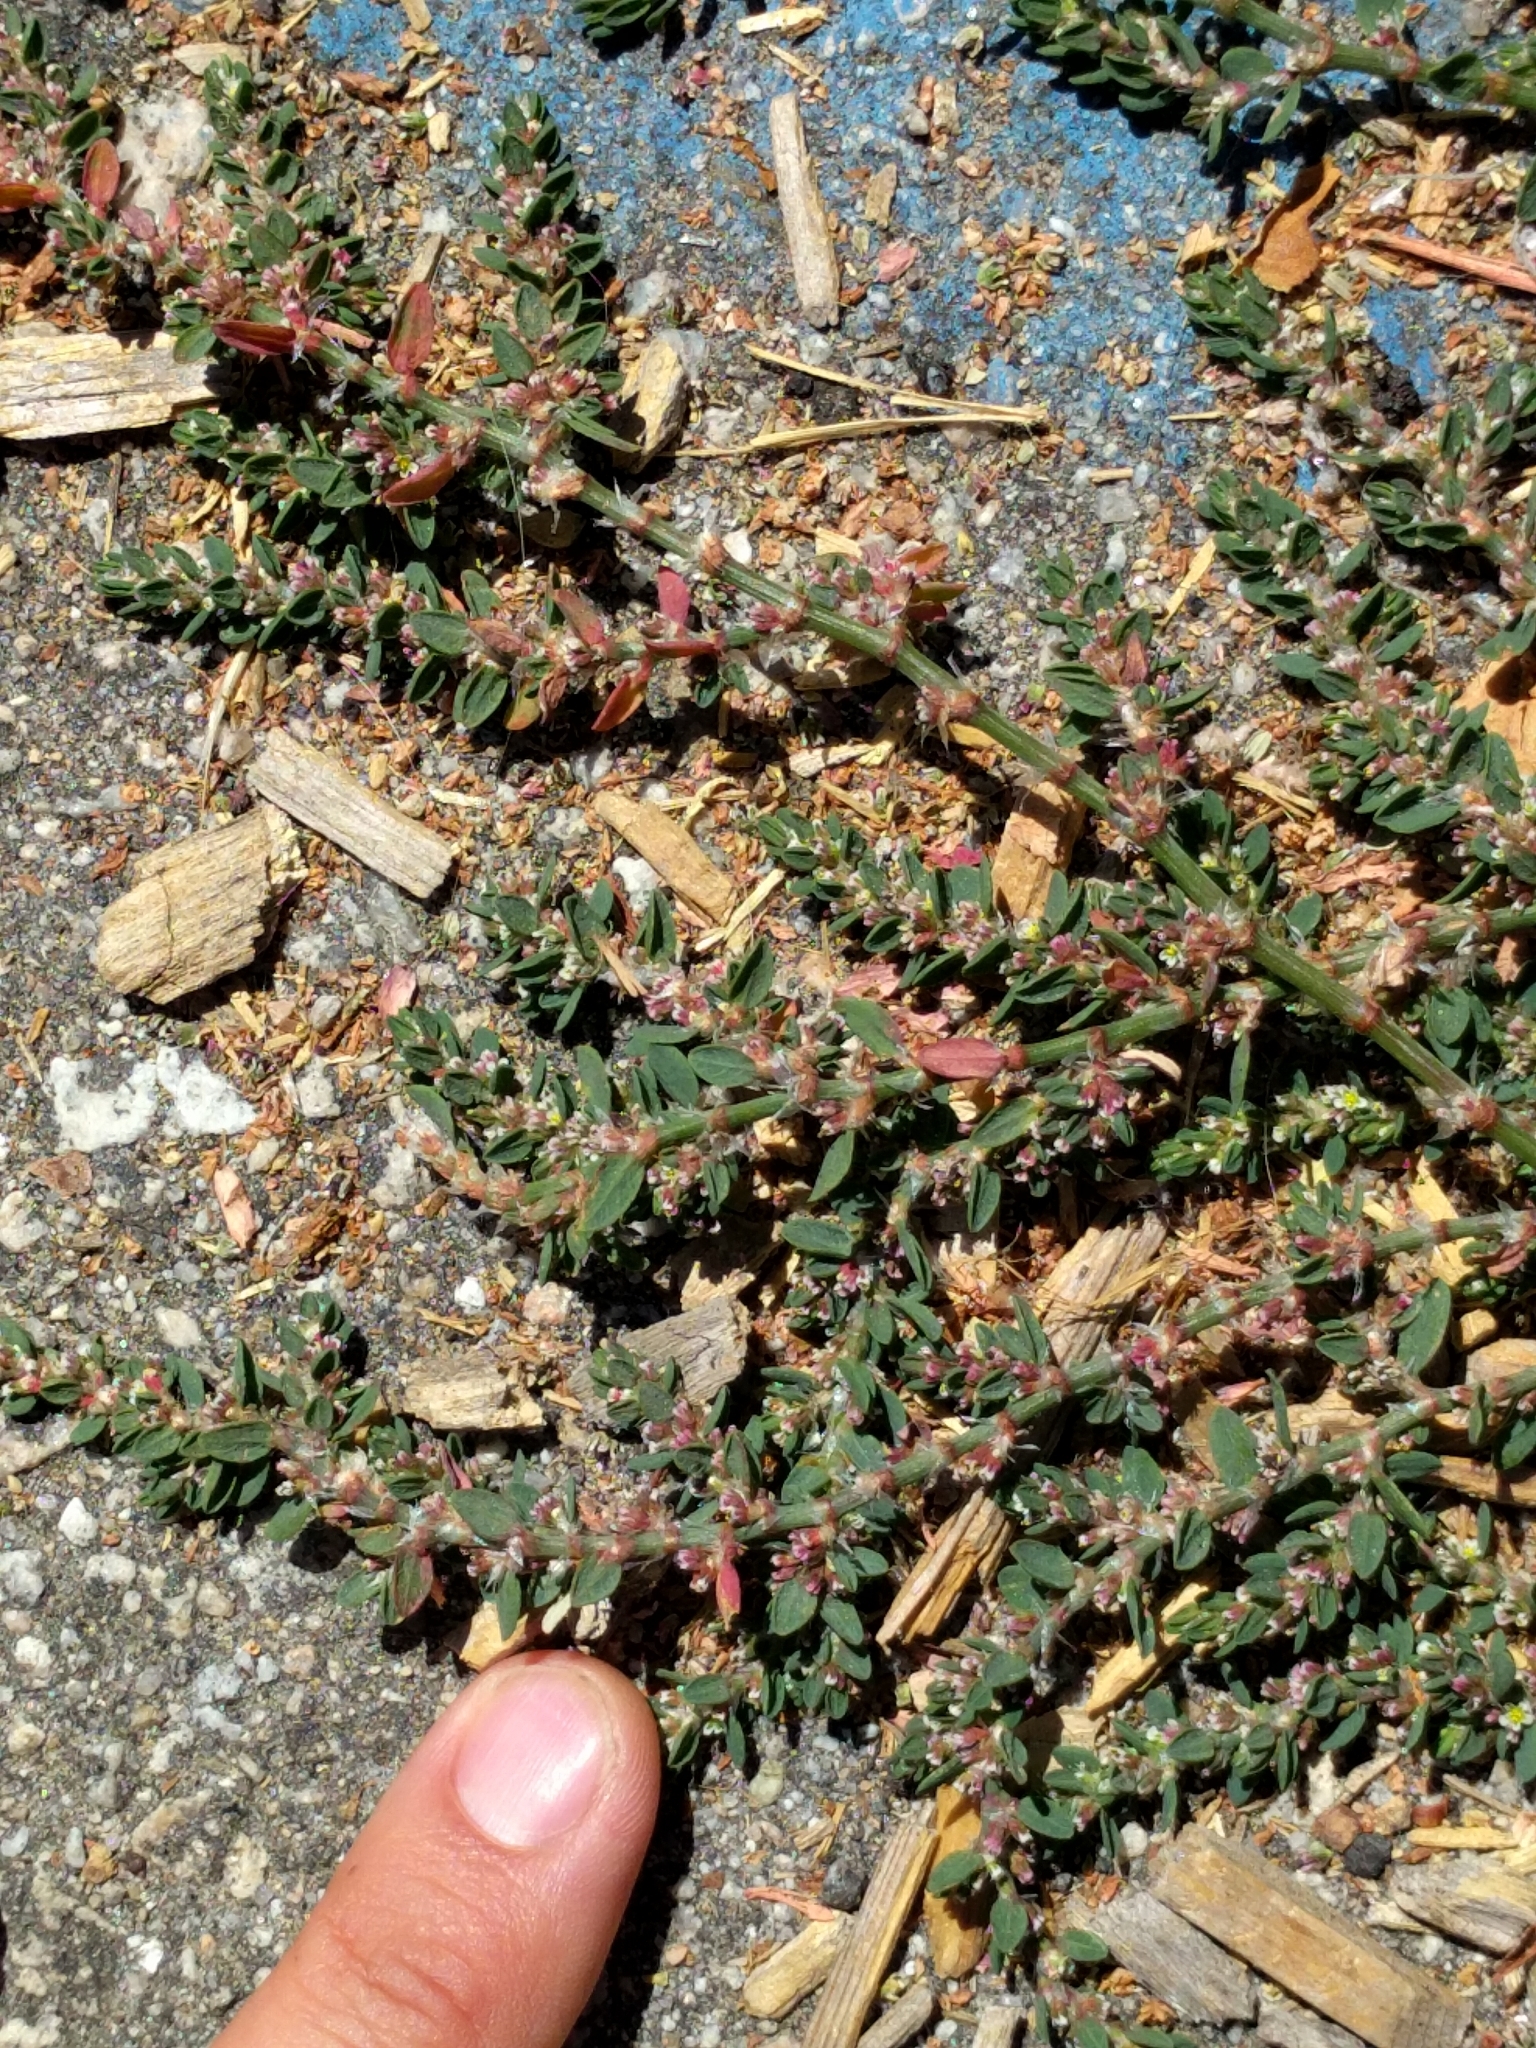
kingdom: Plantae
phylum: Tracheophyta
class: Magnoliopsida
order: Caryophyllales
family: Polygonaceae
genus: Polygonum
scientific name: Polygonum aviculare
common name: Prostrate knotweed
